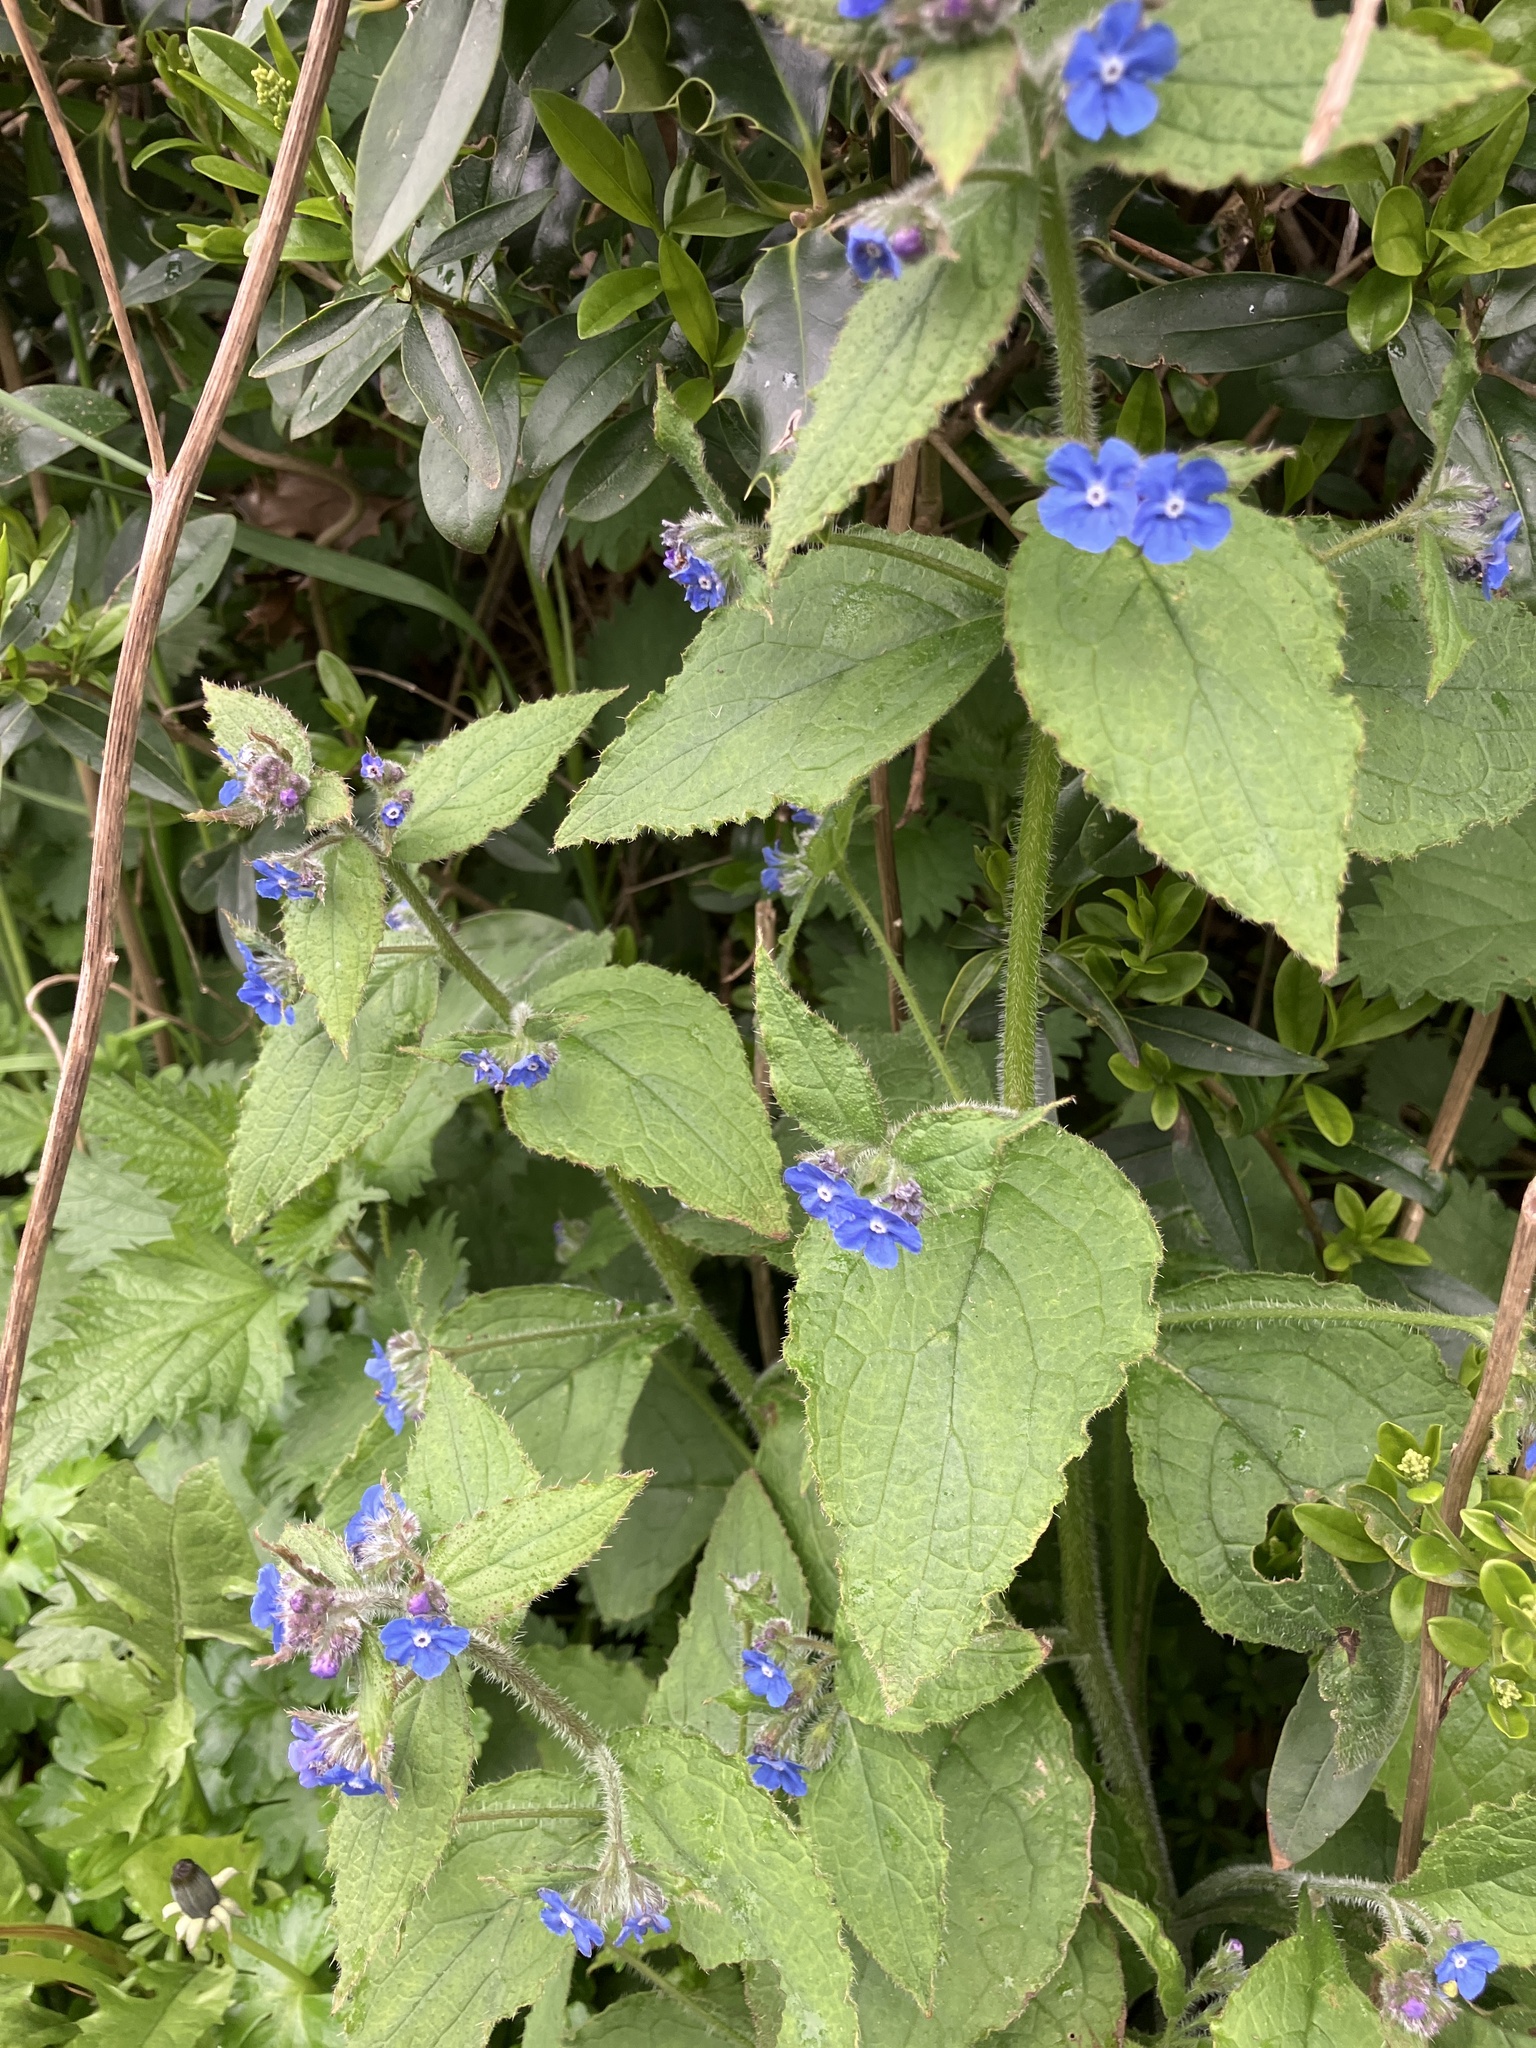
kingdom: Plantae
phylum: Tracheophyta
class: Magnoliopsida
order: Boraginales
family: Boraginaceae
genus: Pentaglottis
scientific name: Pentaglottis sempervirens
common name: Green alkanet
